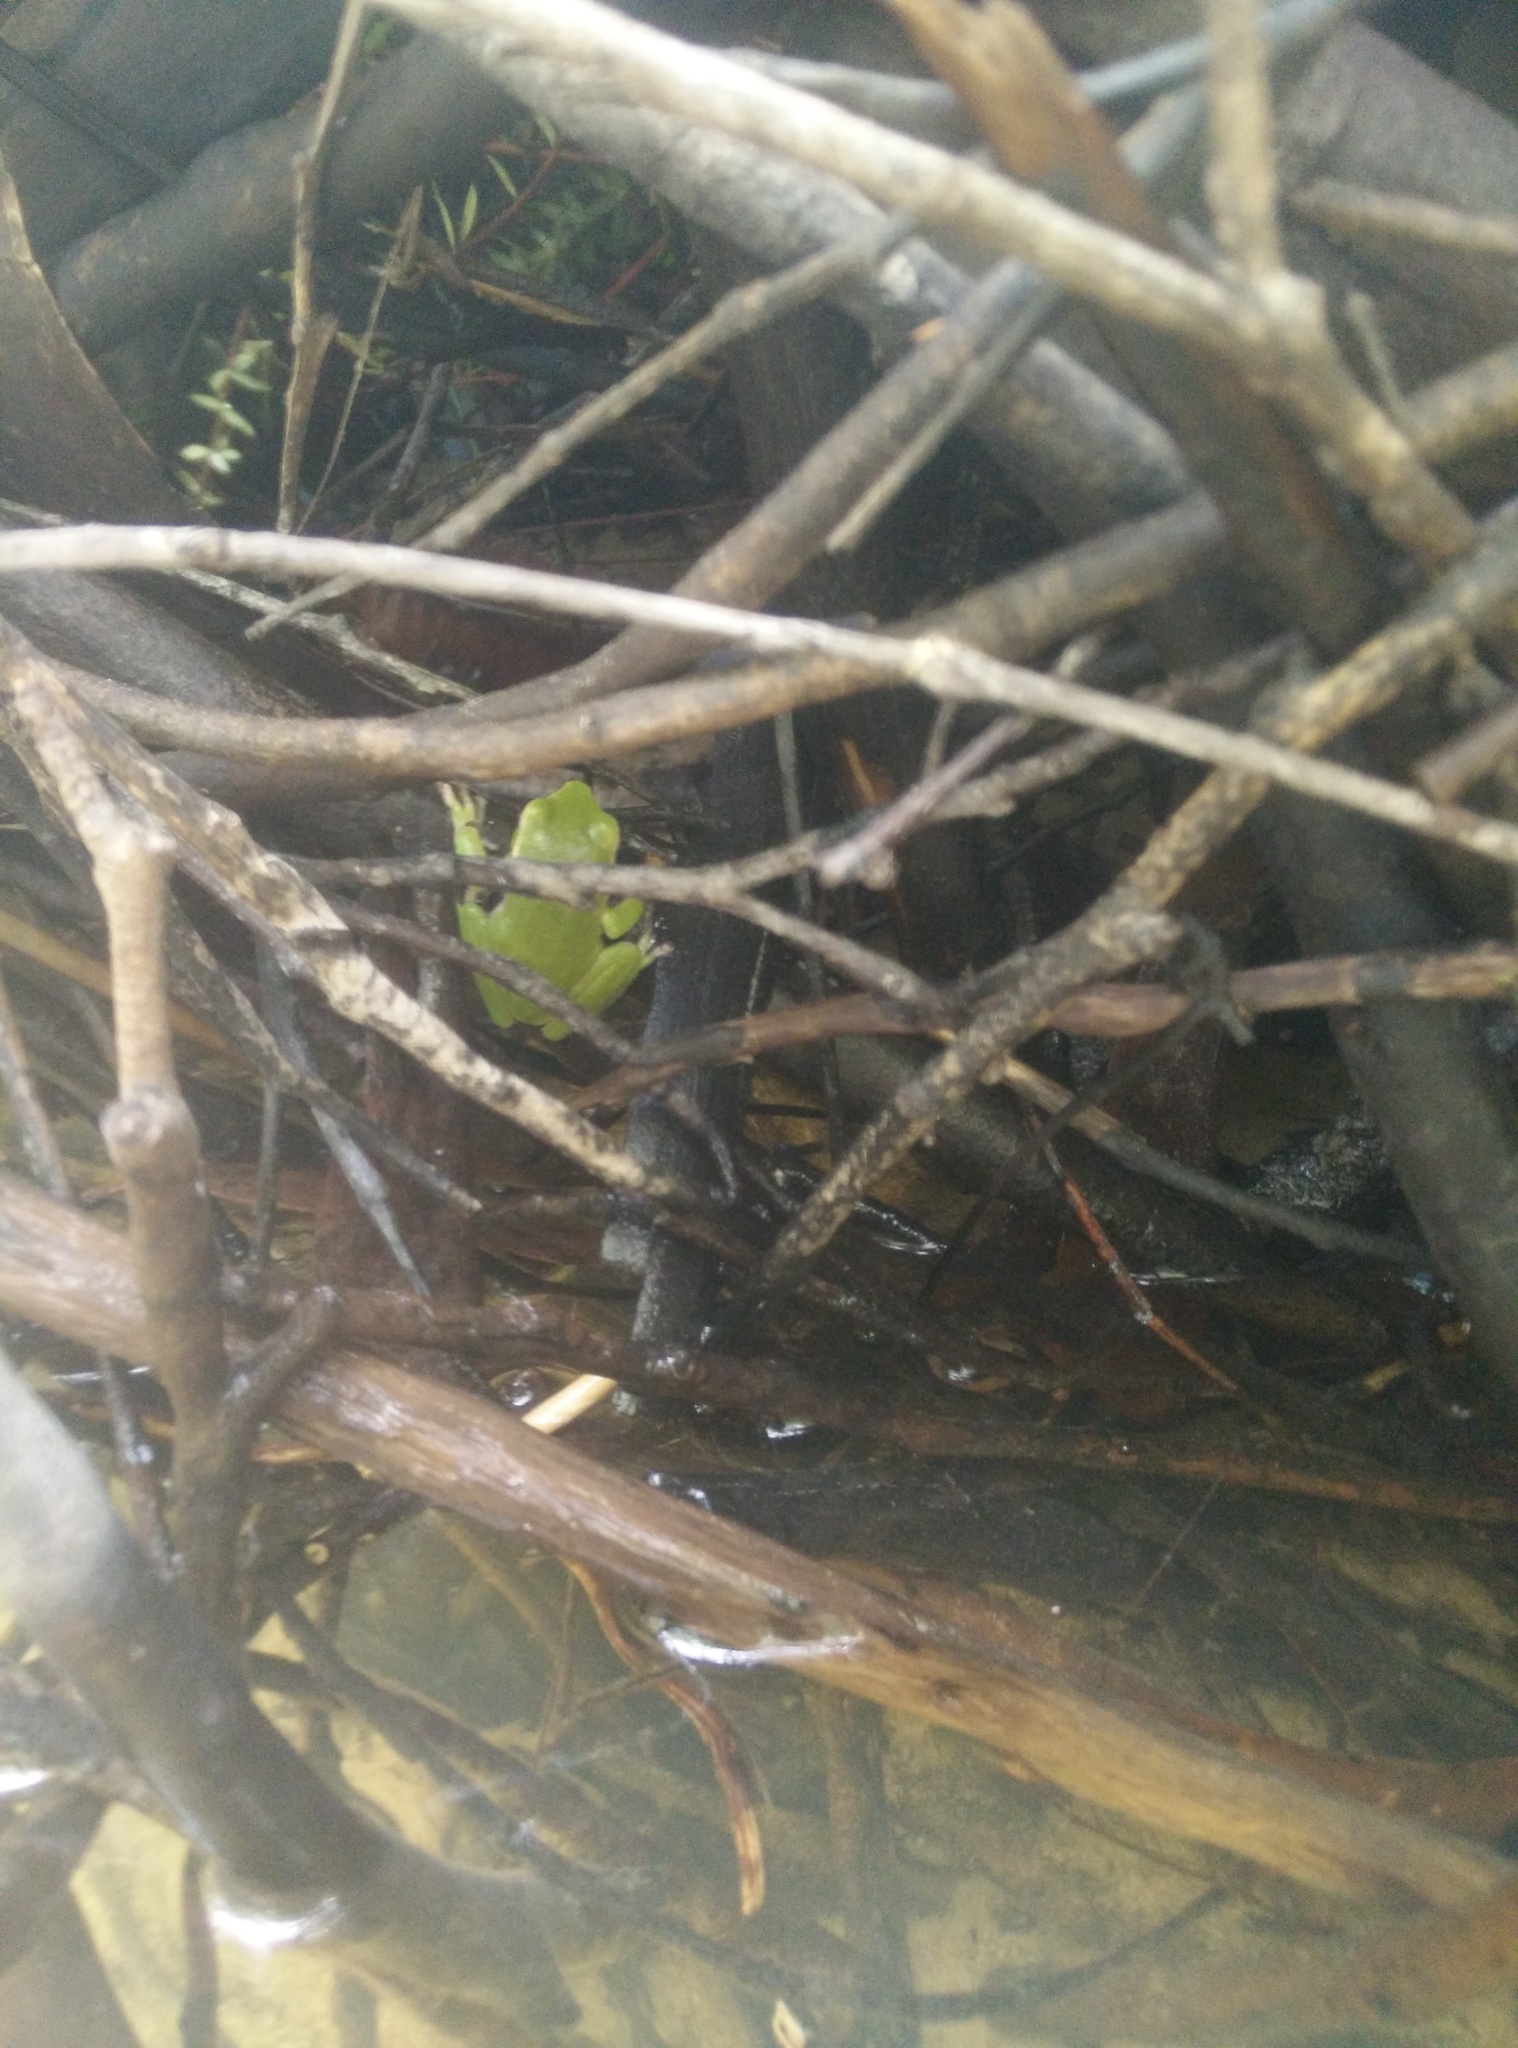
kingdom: Animalia
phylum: Chordata
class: Amphibia
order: Anura
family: Pelodryadidae
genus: Ranoidea
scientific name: Ranoidea phyllochroa
